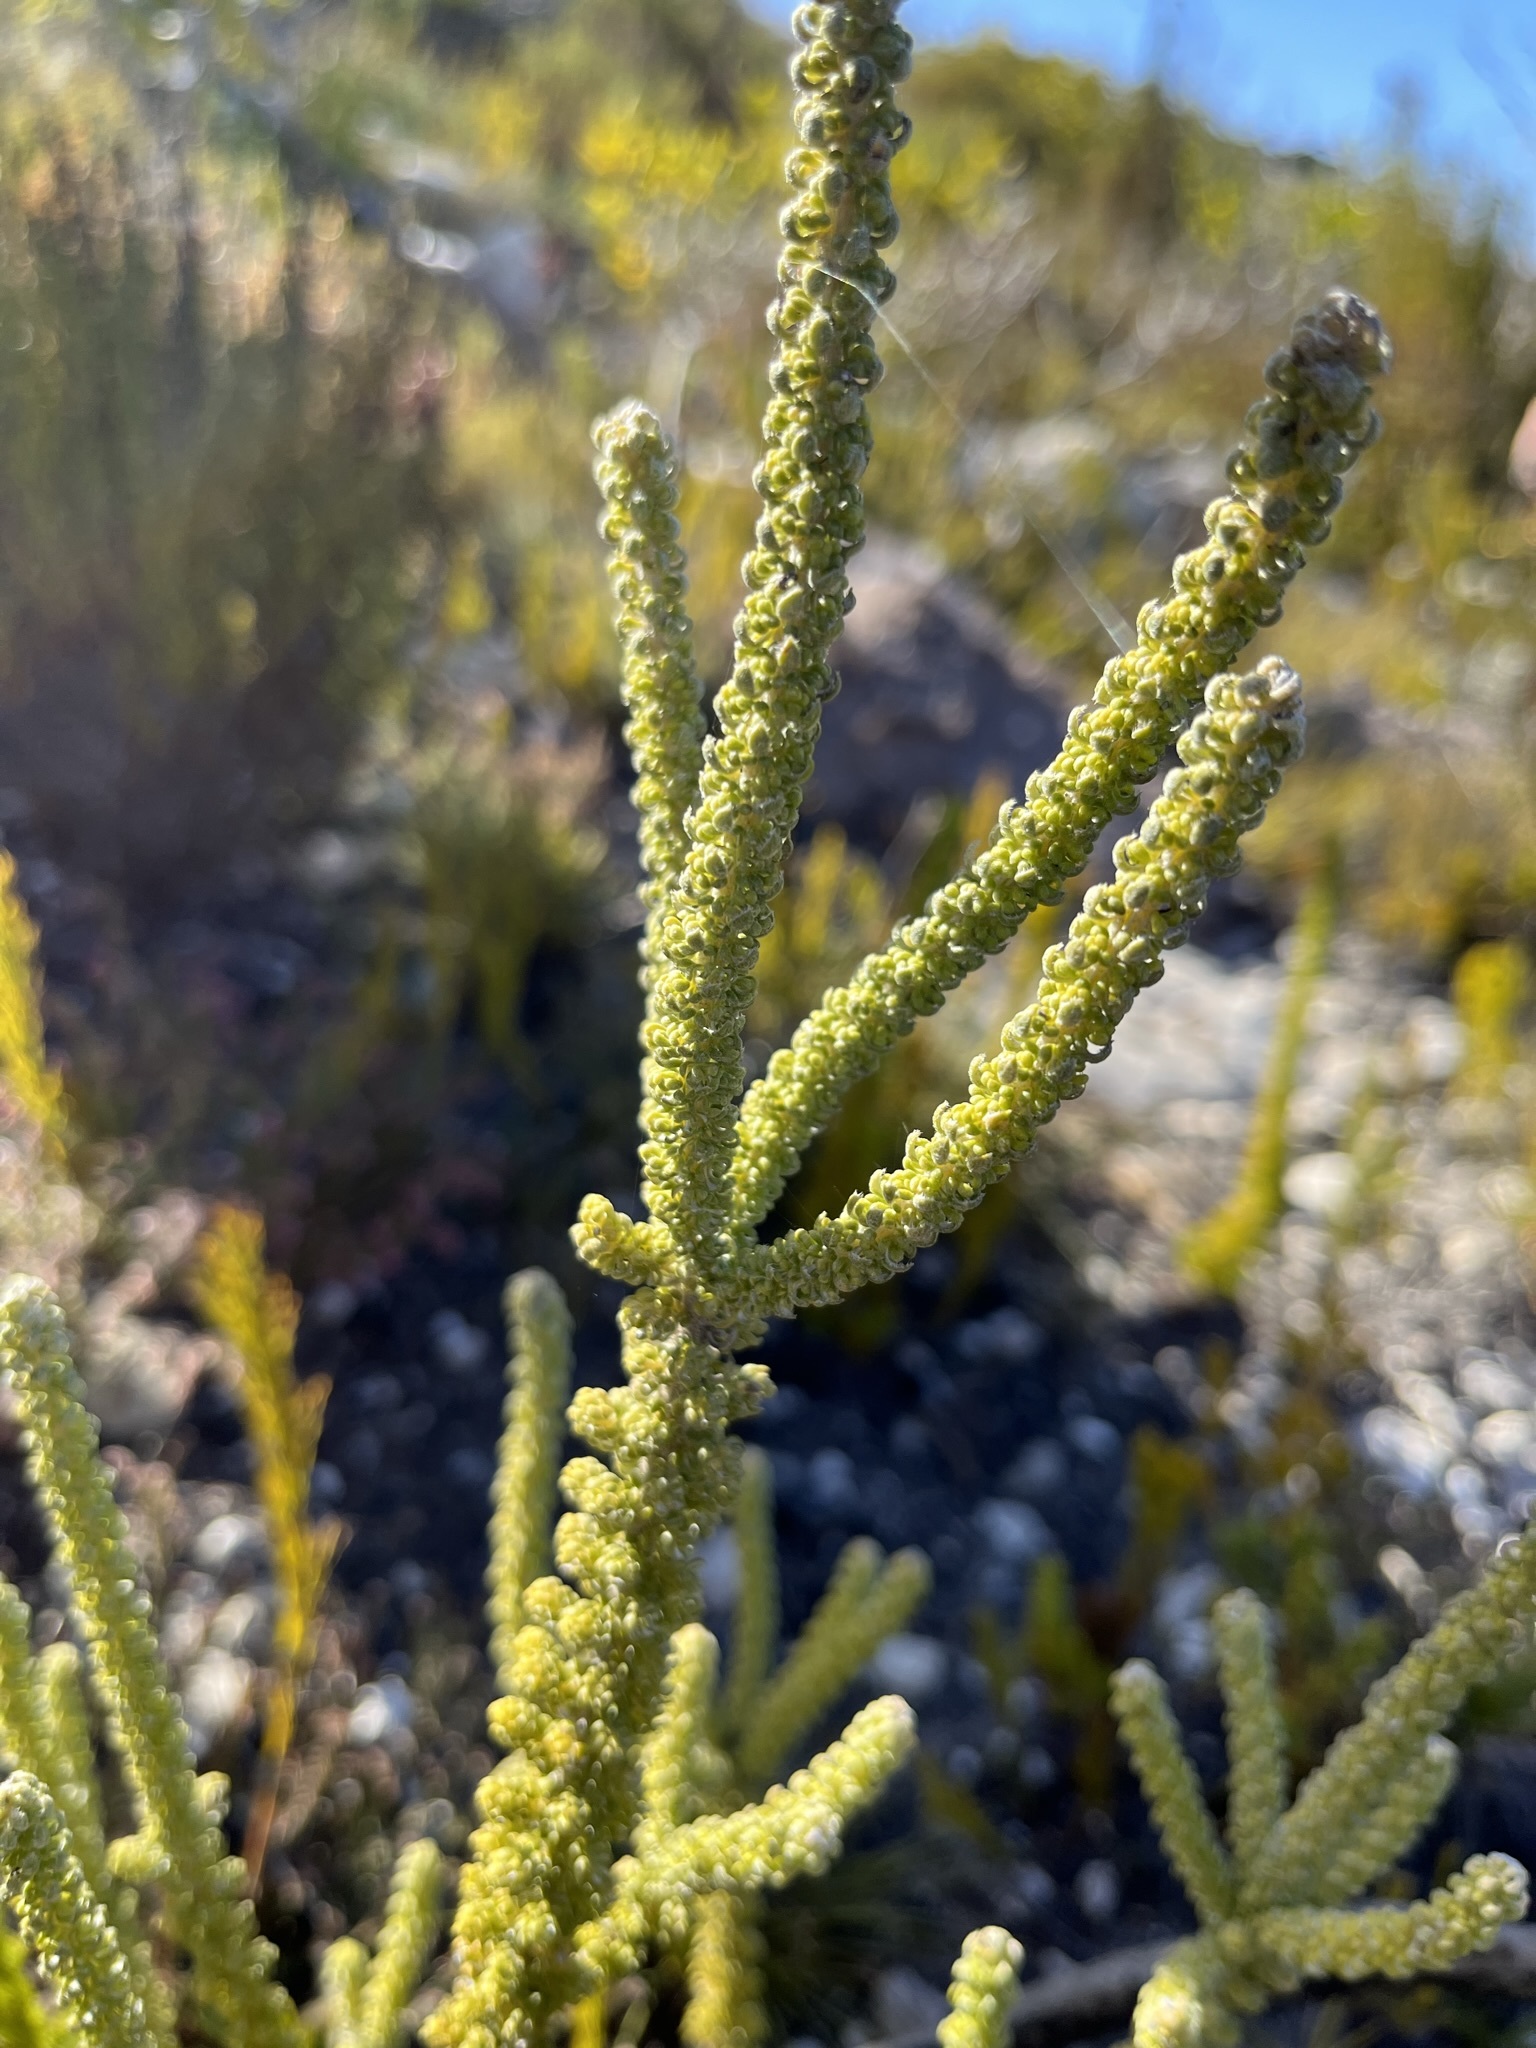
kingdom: Plantae
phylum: Tracheophyta
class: Magnoliopsida
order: Asterales
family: Asteraceae
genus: Metalasia
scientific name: Metalasia calcicola
